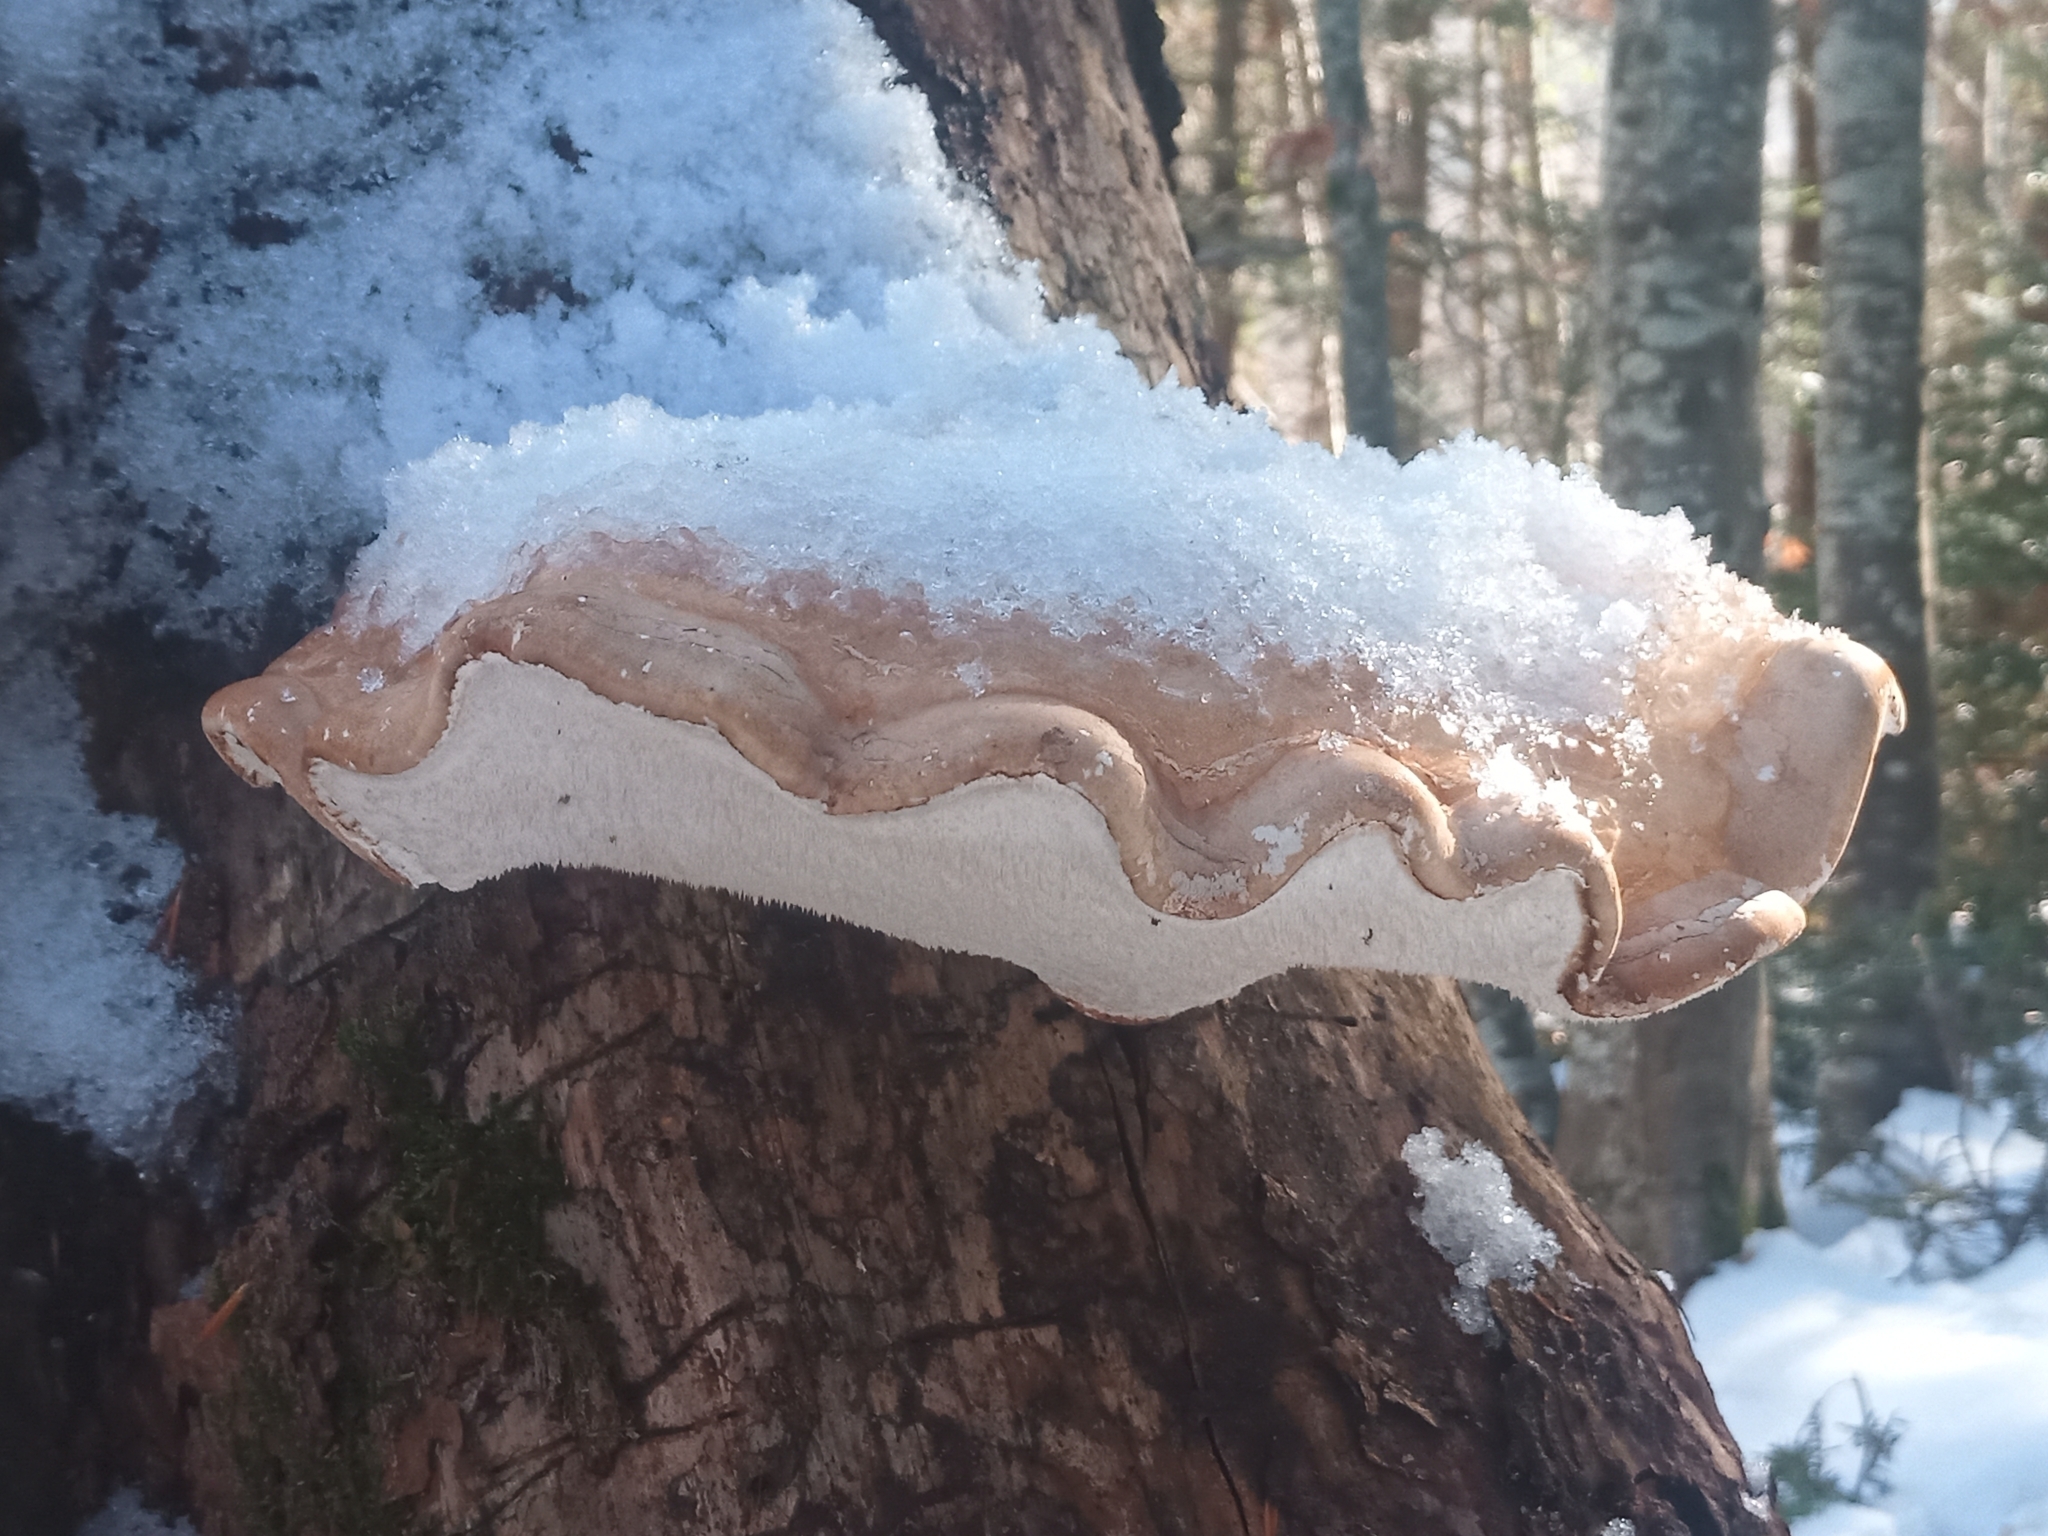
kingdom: Fungi
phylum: Basidiomycota
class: Agaricomycetes
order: Polyporales
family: Fomitopsidaceae
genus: Fomitopsis
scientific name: Fomitopsis betulina
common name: Birch polypore
